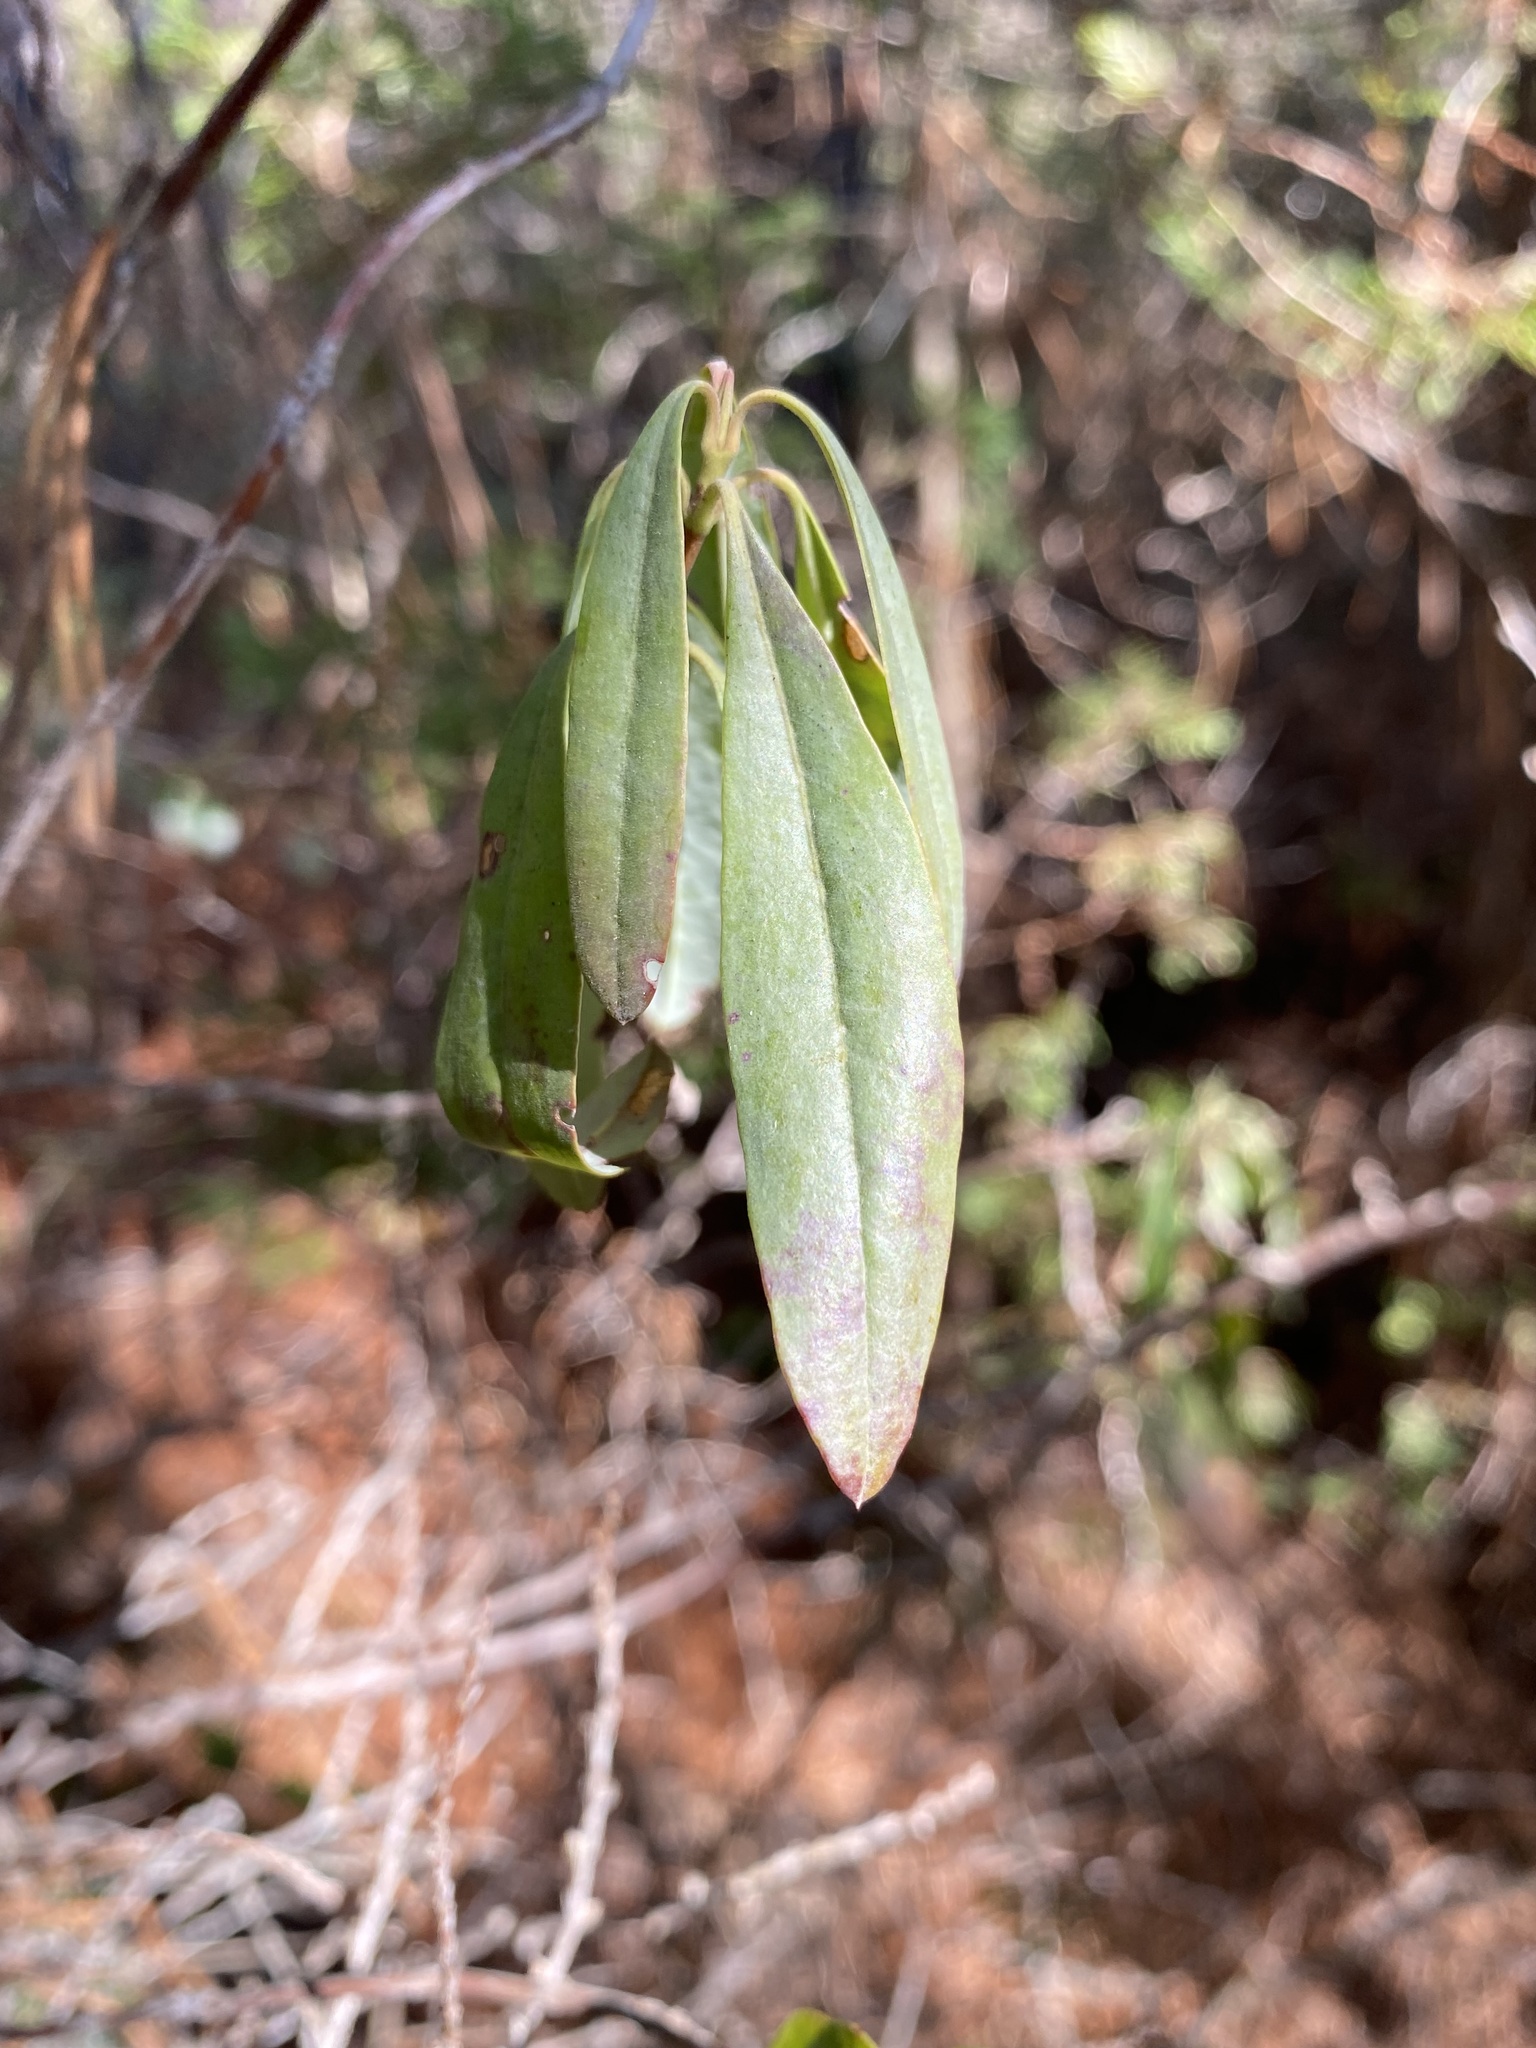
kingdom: Plantae
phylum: Tracheophyta
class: Magnoliopsida
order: Ericales
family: Ericaceae
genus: Kalmia
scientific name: Kalmia angustifolia
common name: Sheep-laurel
